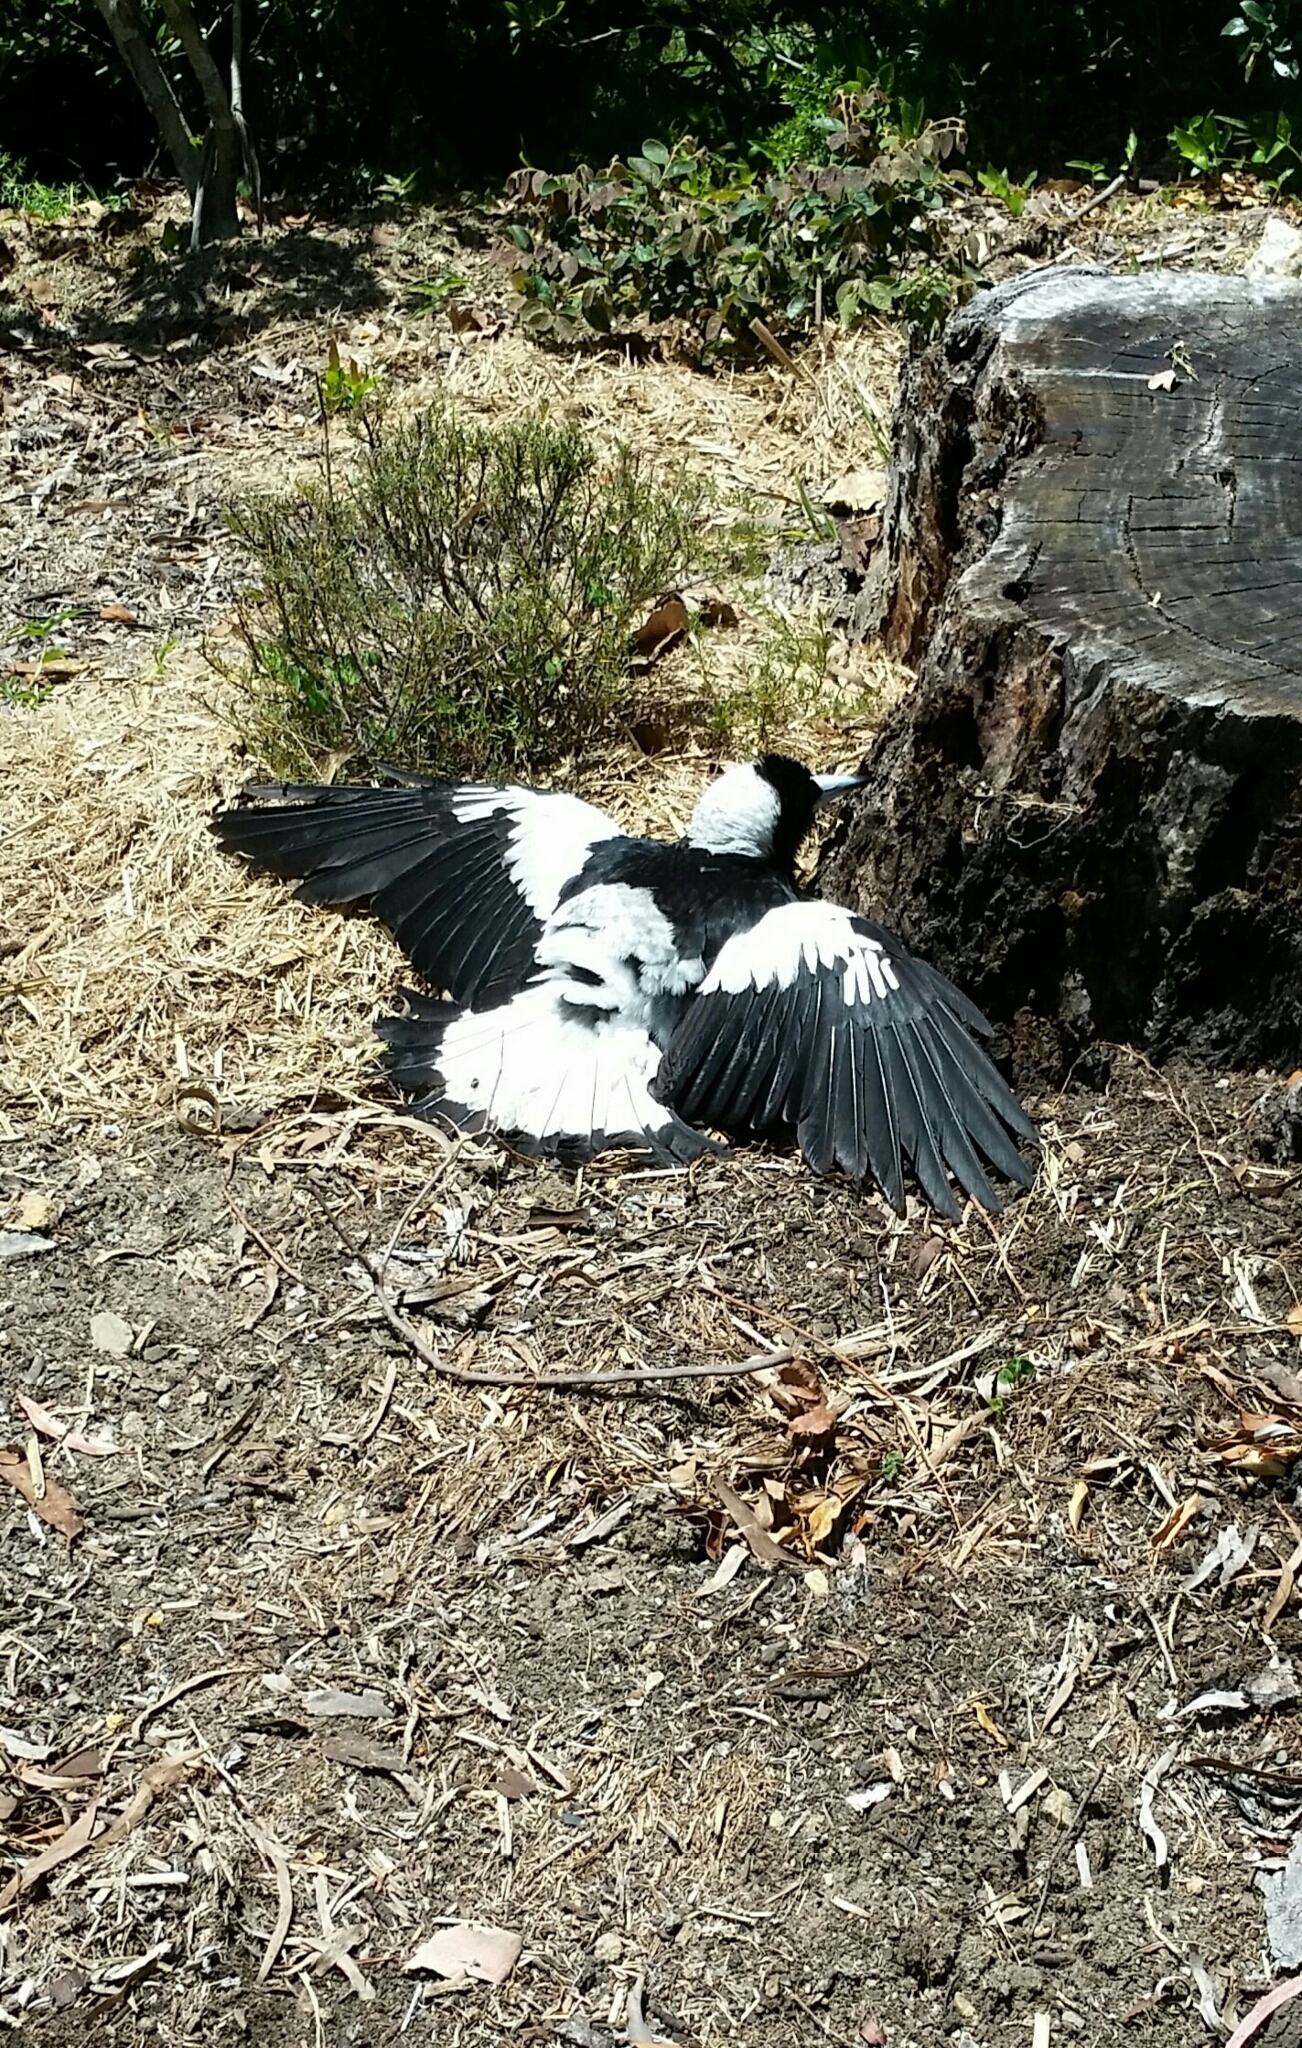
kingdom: Animalia
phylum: Chordata
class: Aves
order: Passeriformes
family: Cracticidae
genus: Gymnorhina
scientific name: Gymnorhina tibicen
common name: Australian magpie
